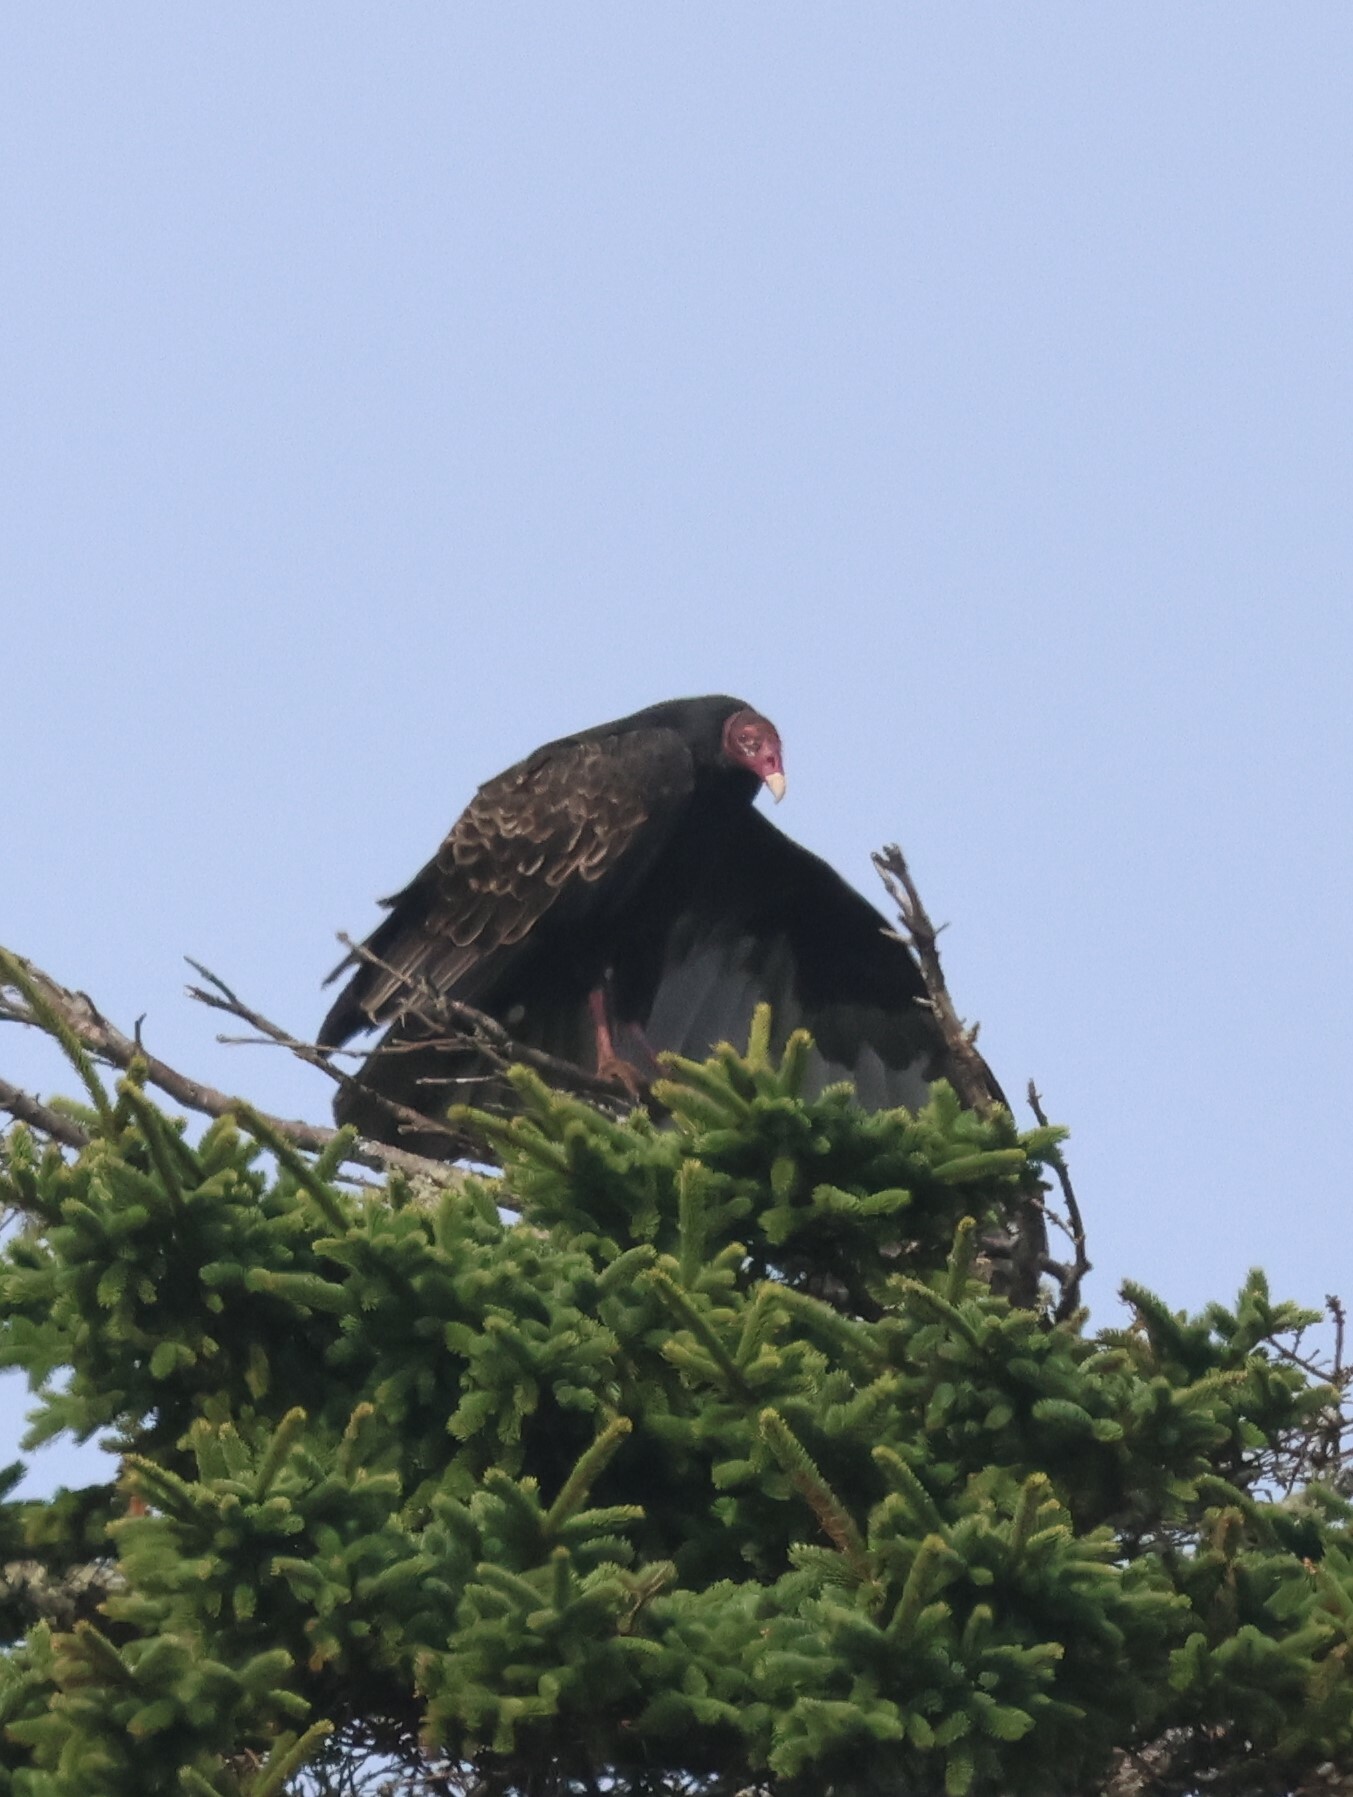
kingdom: Animalia
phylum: Chordata
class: Aves
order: Accipitriformes
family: Cathartidae
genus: Cathartes
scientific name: Cathartes aura
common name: Turkey vulture
